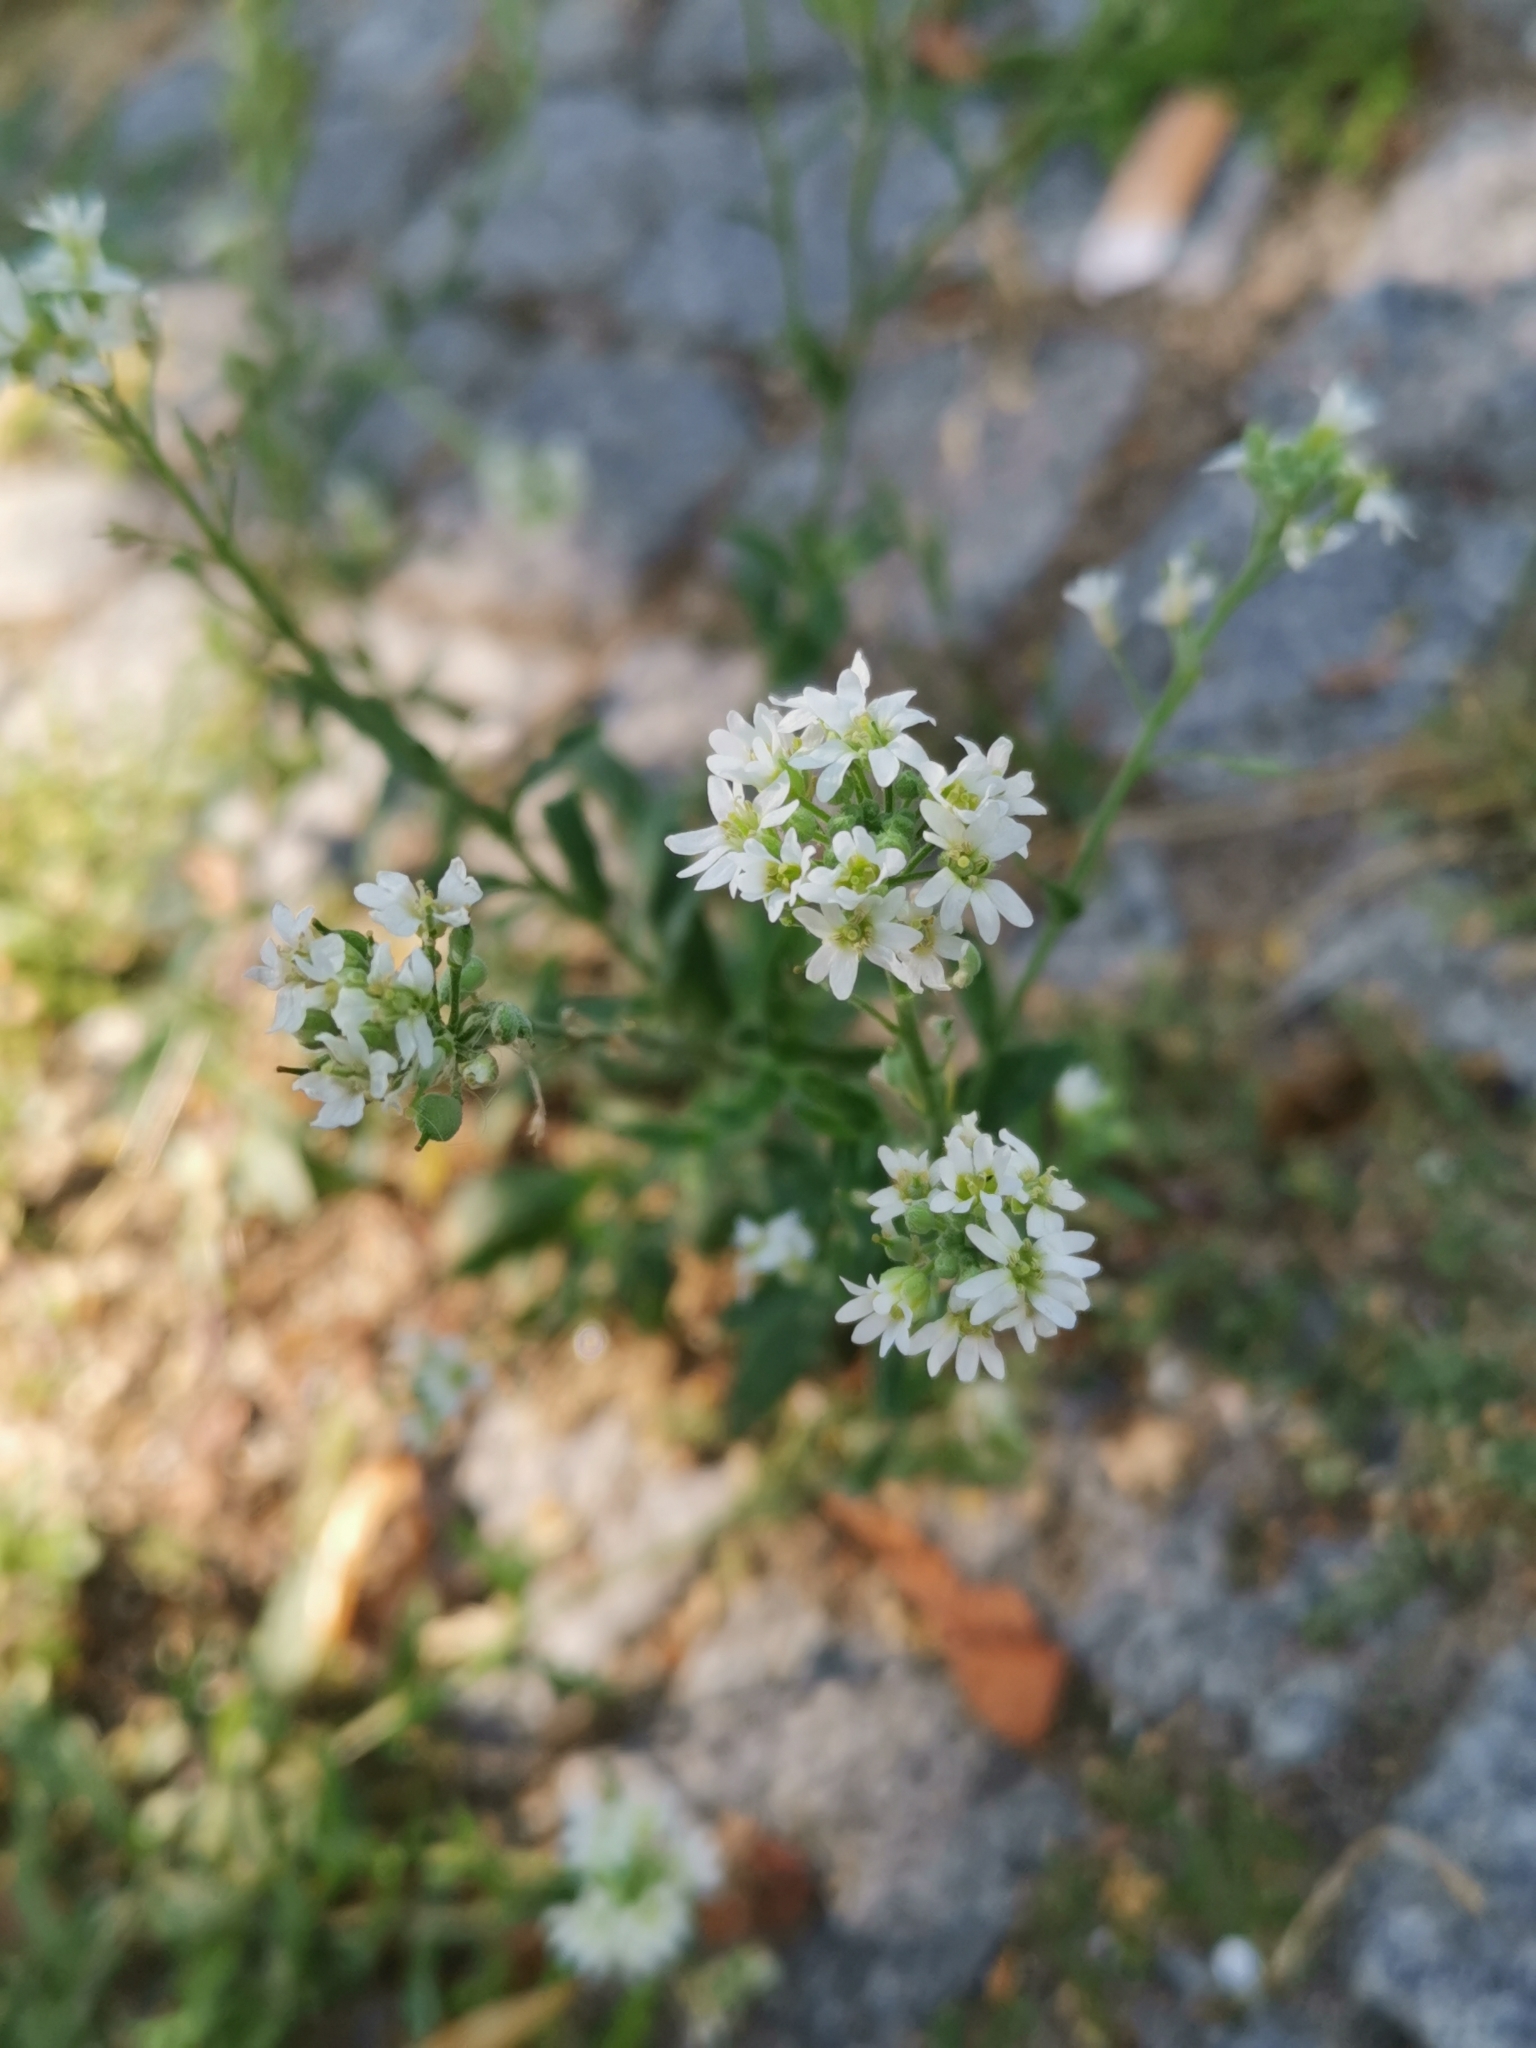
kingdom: Plantae
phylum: Tracheophyta
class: Magnoliopsida
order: Brassicales
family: Brassicaceae
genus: Berteroa
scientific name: Berteroa incana
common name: Hoary alison
